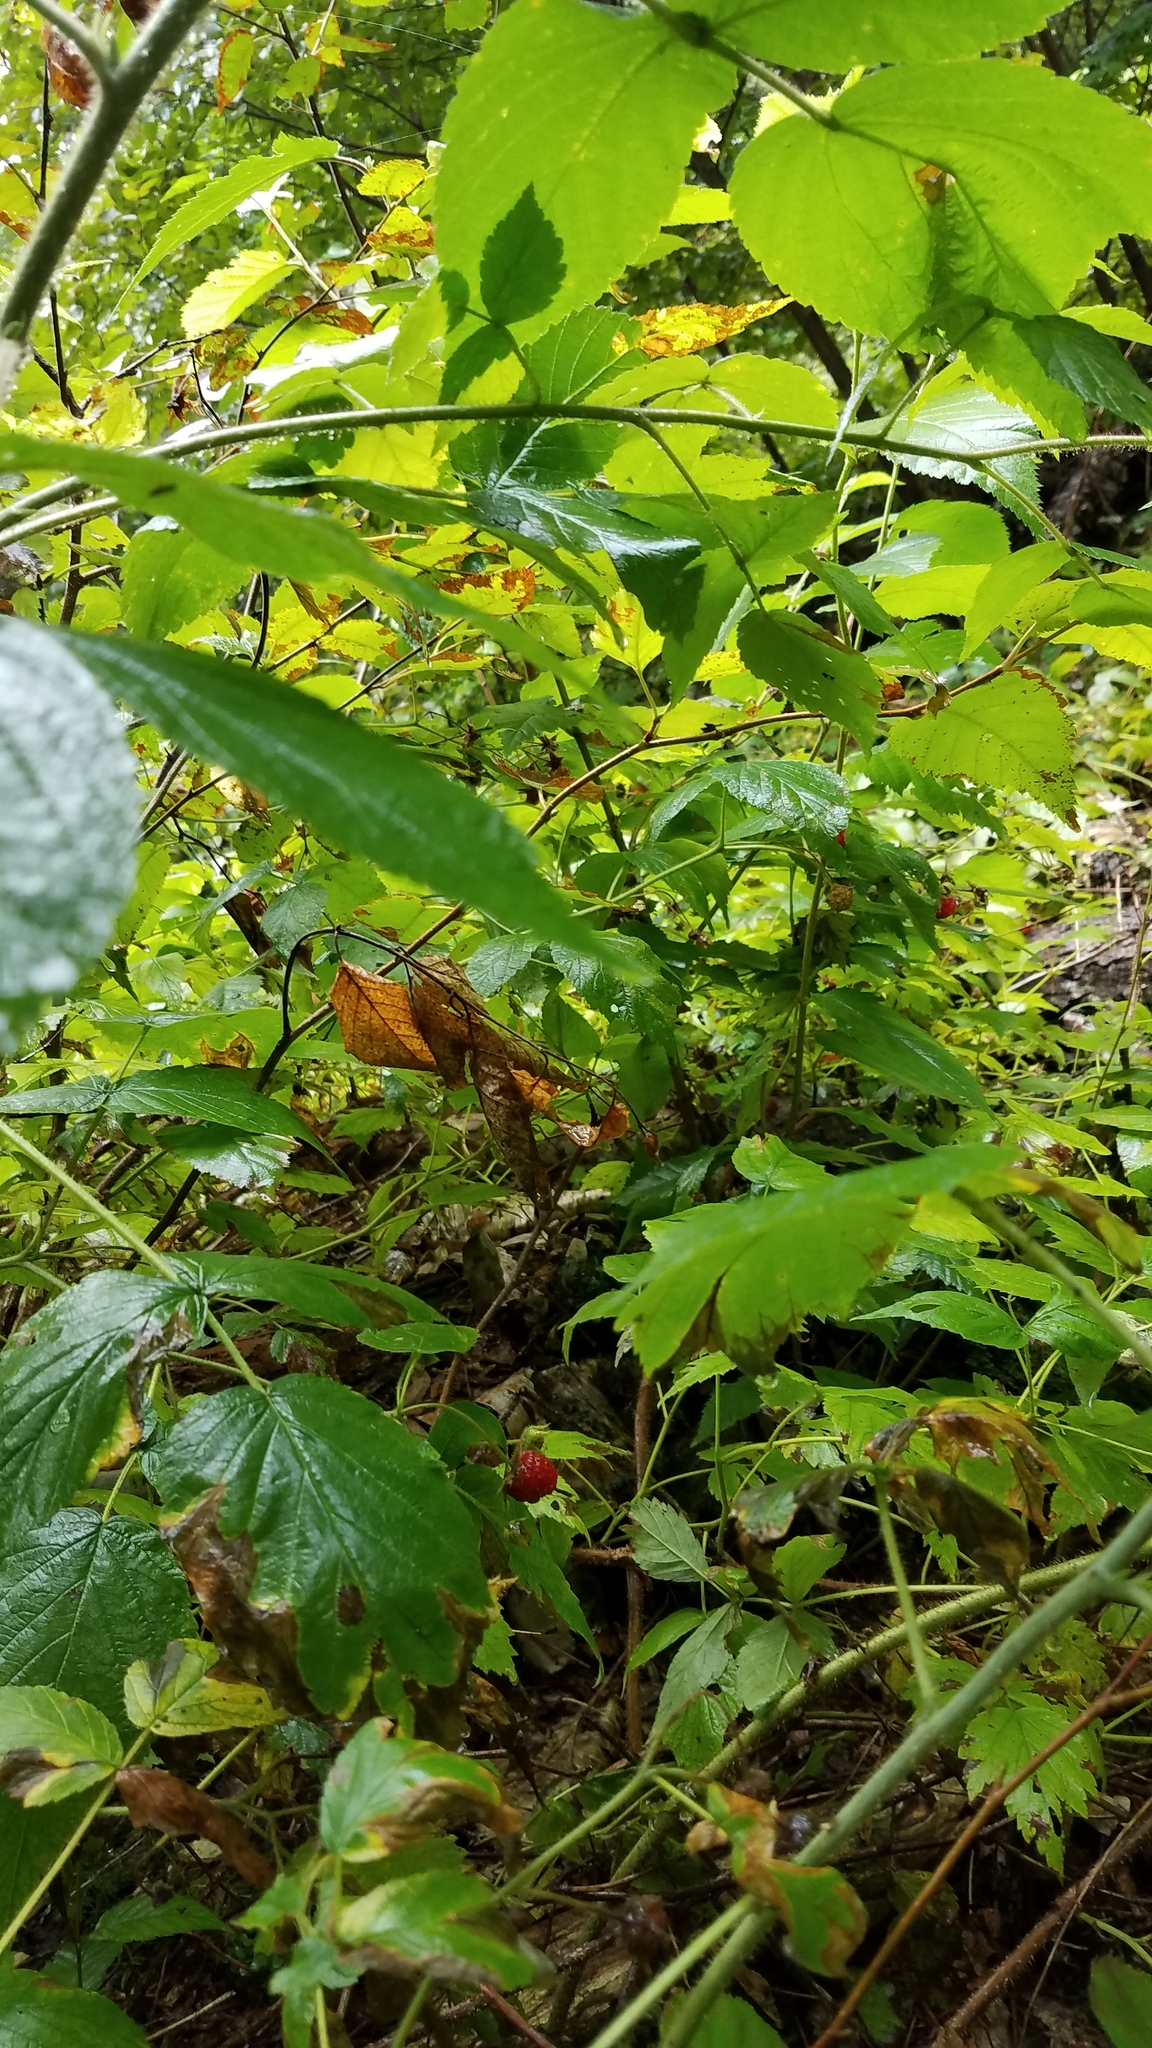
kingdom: Plantae
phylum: Tracheophyta
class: Magnoliopsida
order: Rosales
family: Rosaceae
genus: Rubus
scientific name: Rubus idaeus
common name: Raspberry
